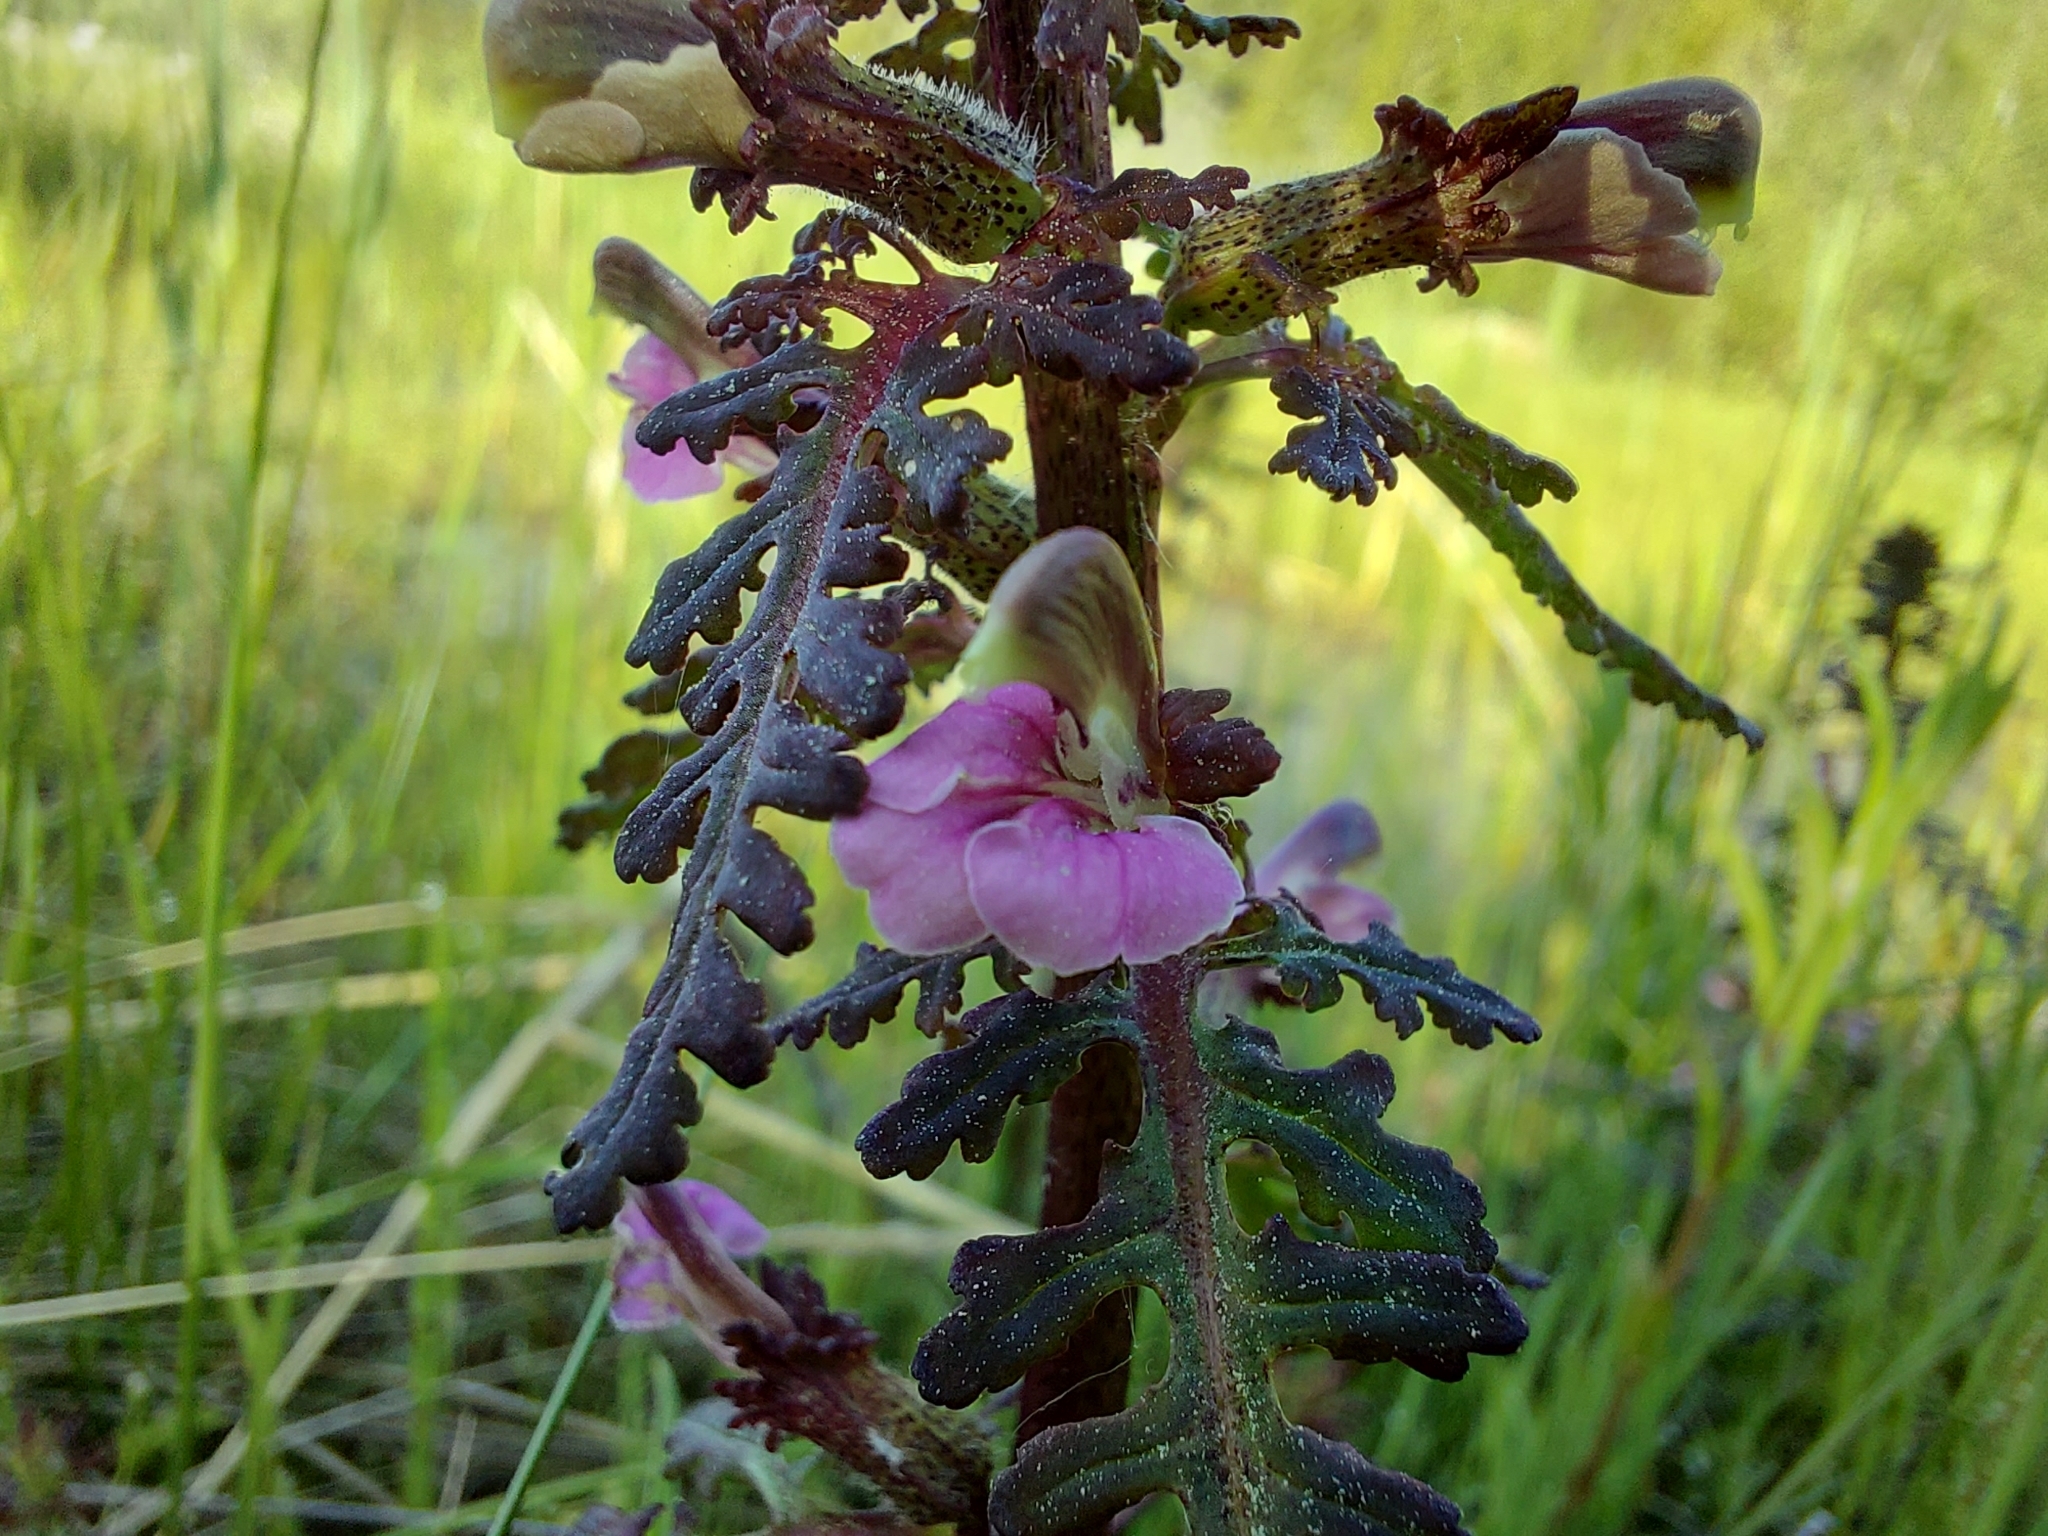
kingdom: Plantae
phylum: Tracheophyta
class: Magnoliopsida
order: Lamiales
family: Orobanchaceae
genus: Pedicularis
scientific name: Pedicularis palustris
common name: Marsh lousewort
